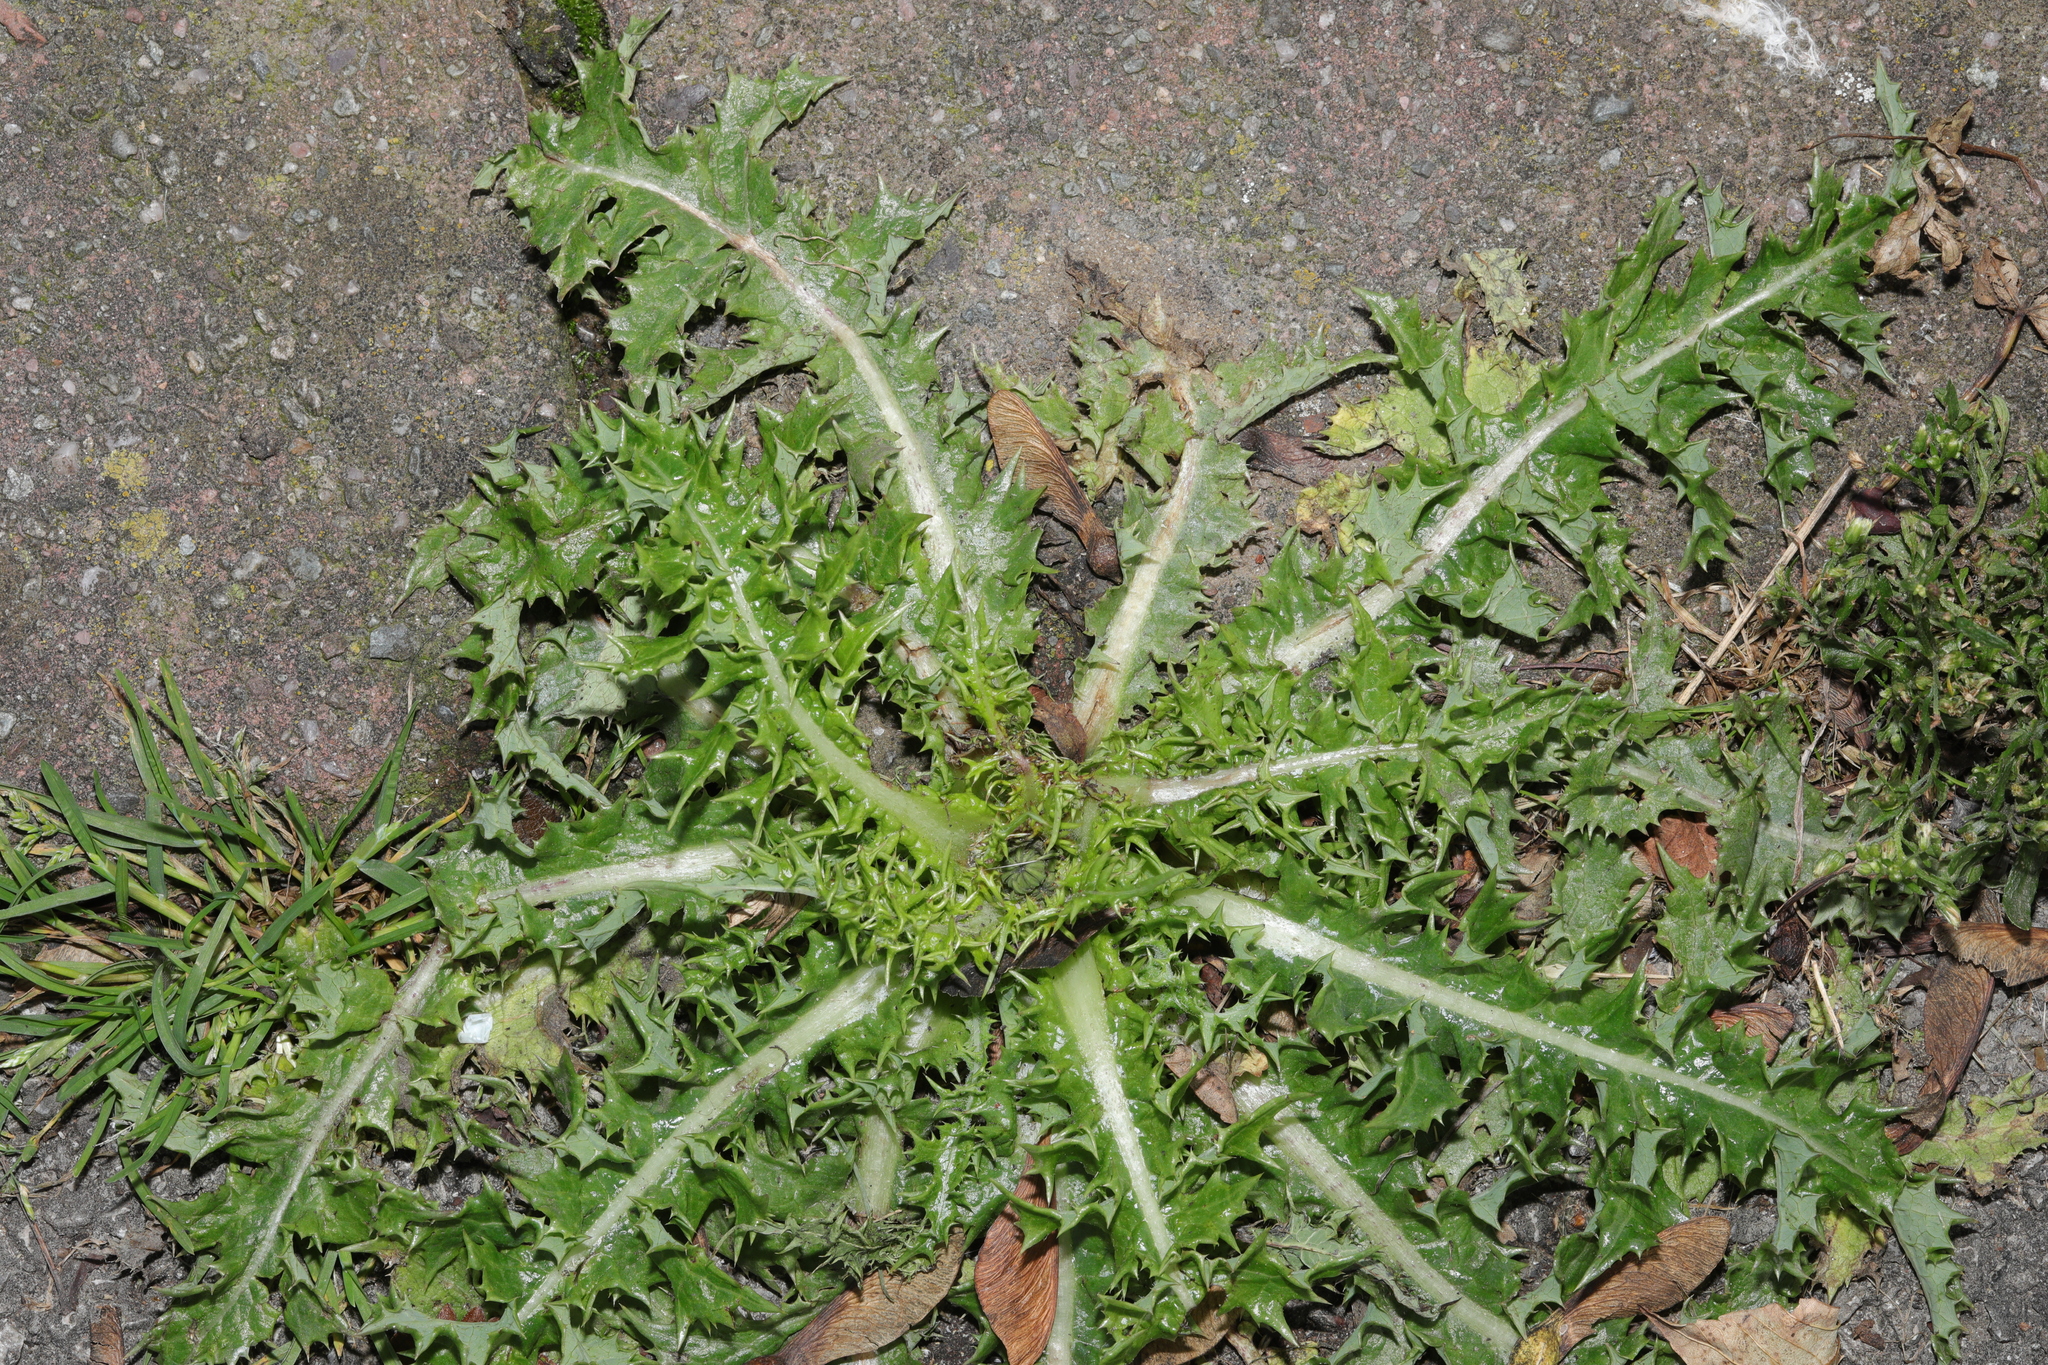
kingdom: Plantae
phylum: Tracheophyta
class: Magnoliopsida
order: Asterales
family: Asteraceae
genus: Sonchus
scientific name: Sonchus asper
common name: Prickly sow-thistle
